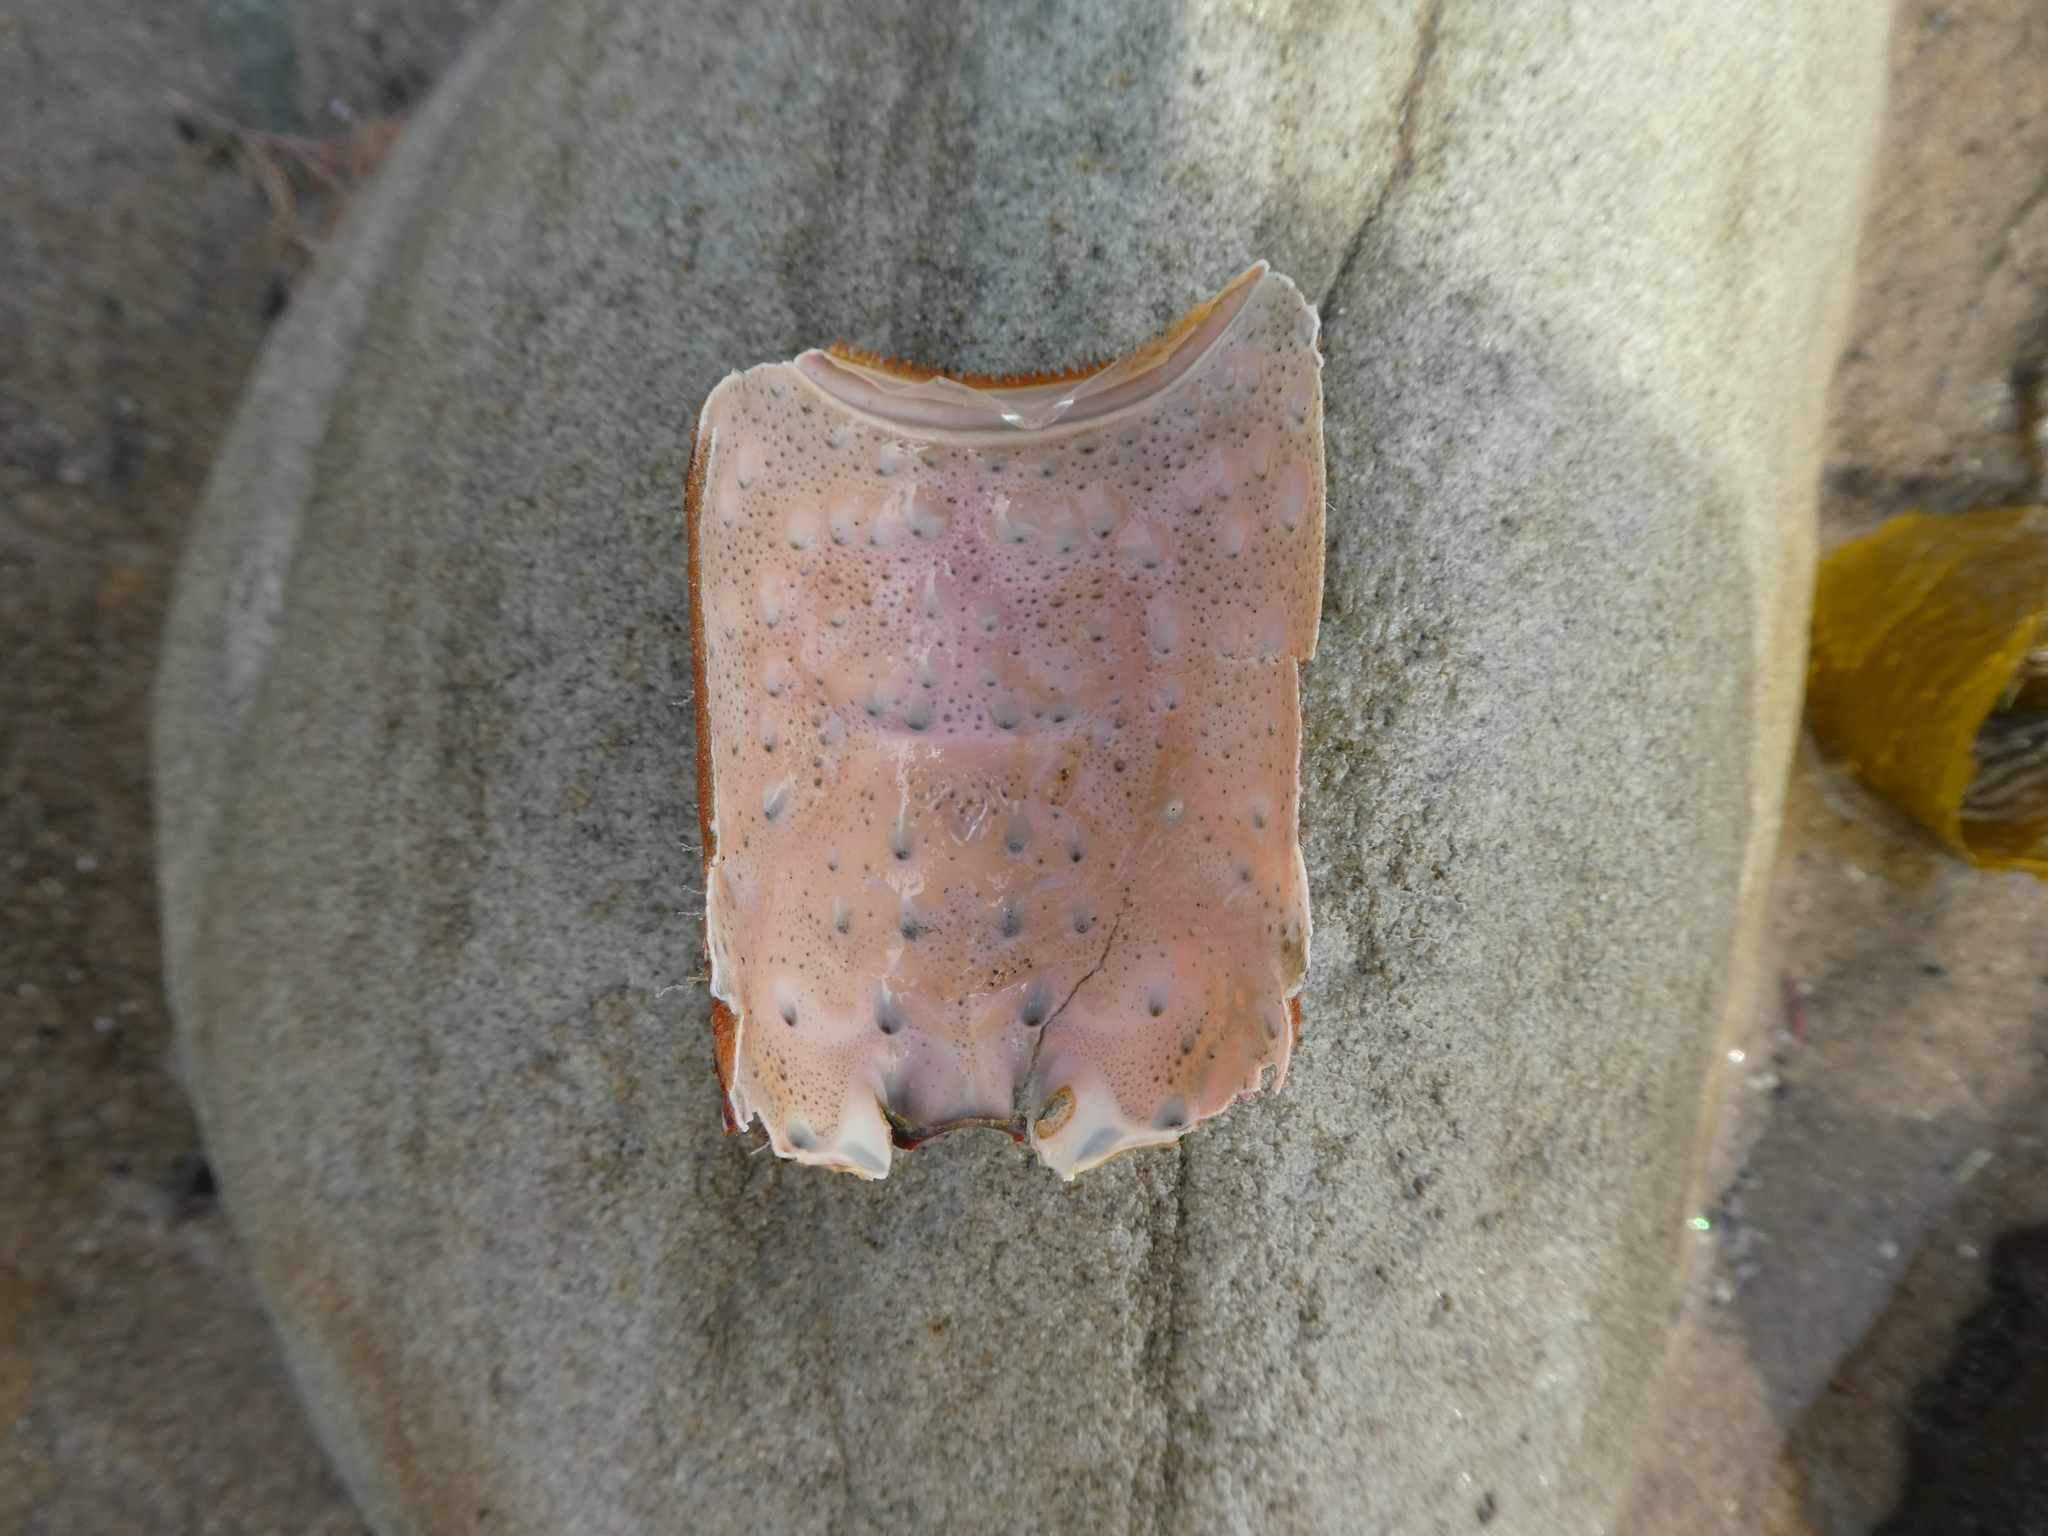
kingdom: Animalia
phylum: Arthropoda
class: Malacostraca
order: Decapoda
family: Palinuridae
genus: Panulirus
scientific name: Panulirus interruptus
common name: California spiny lobster
